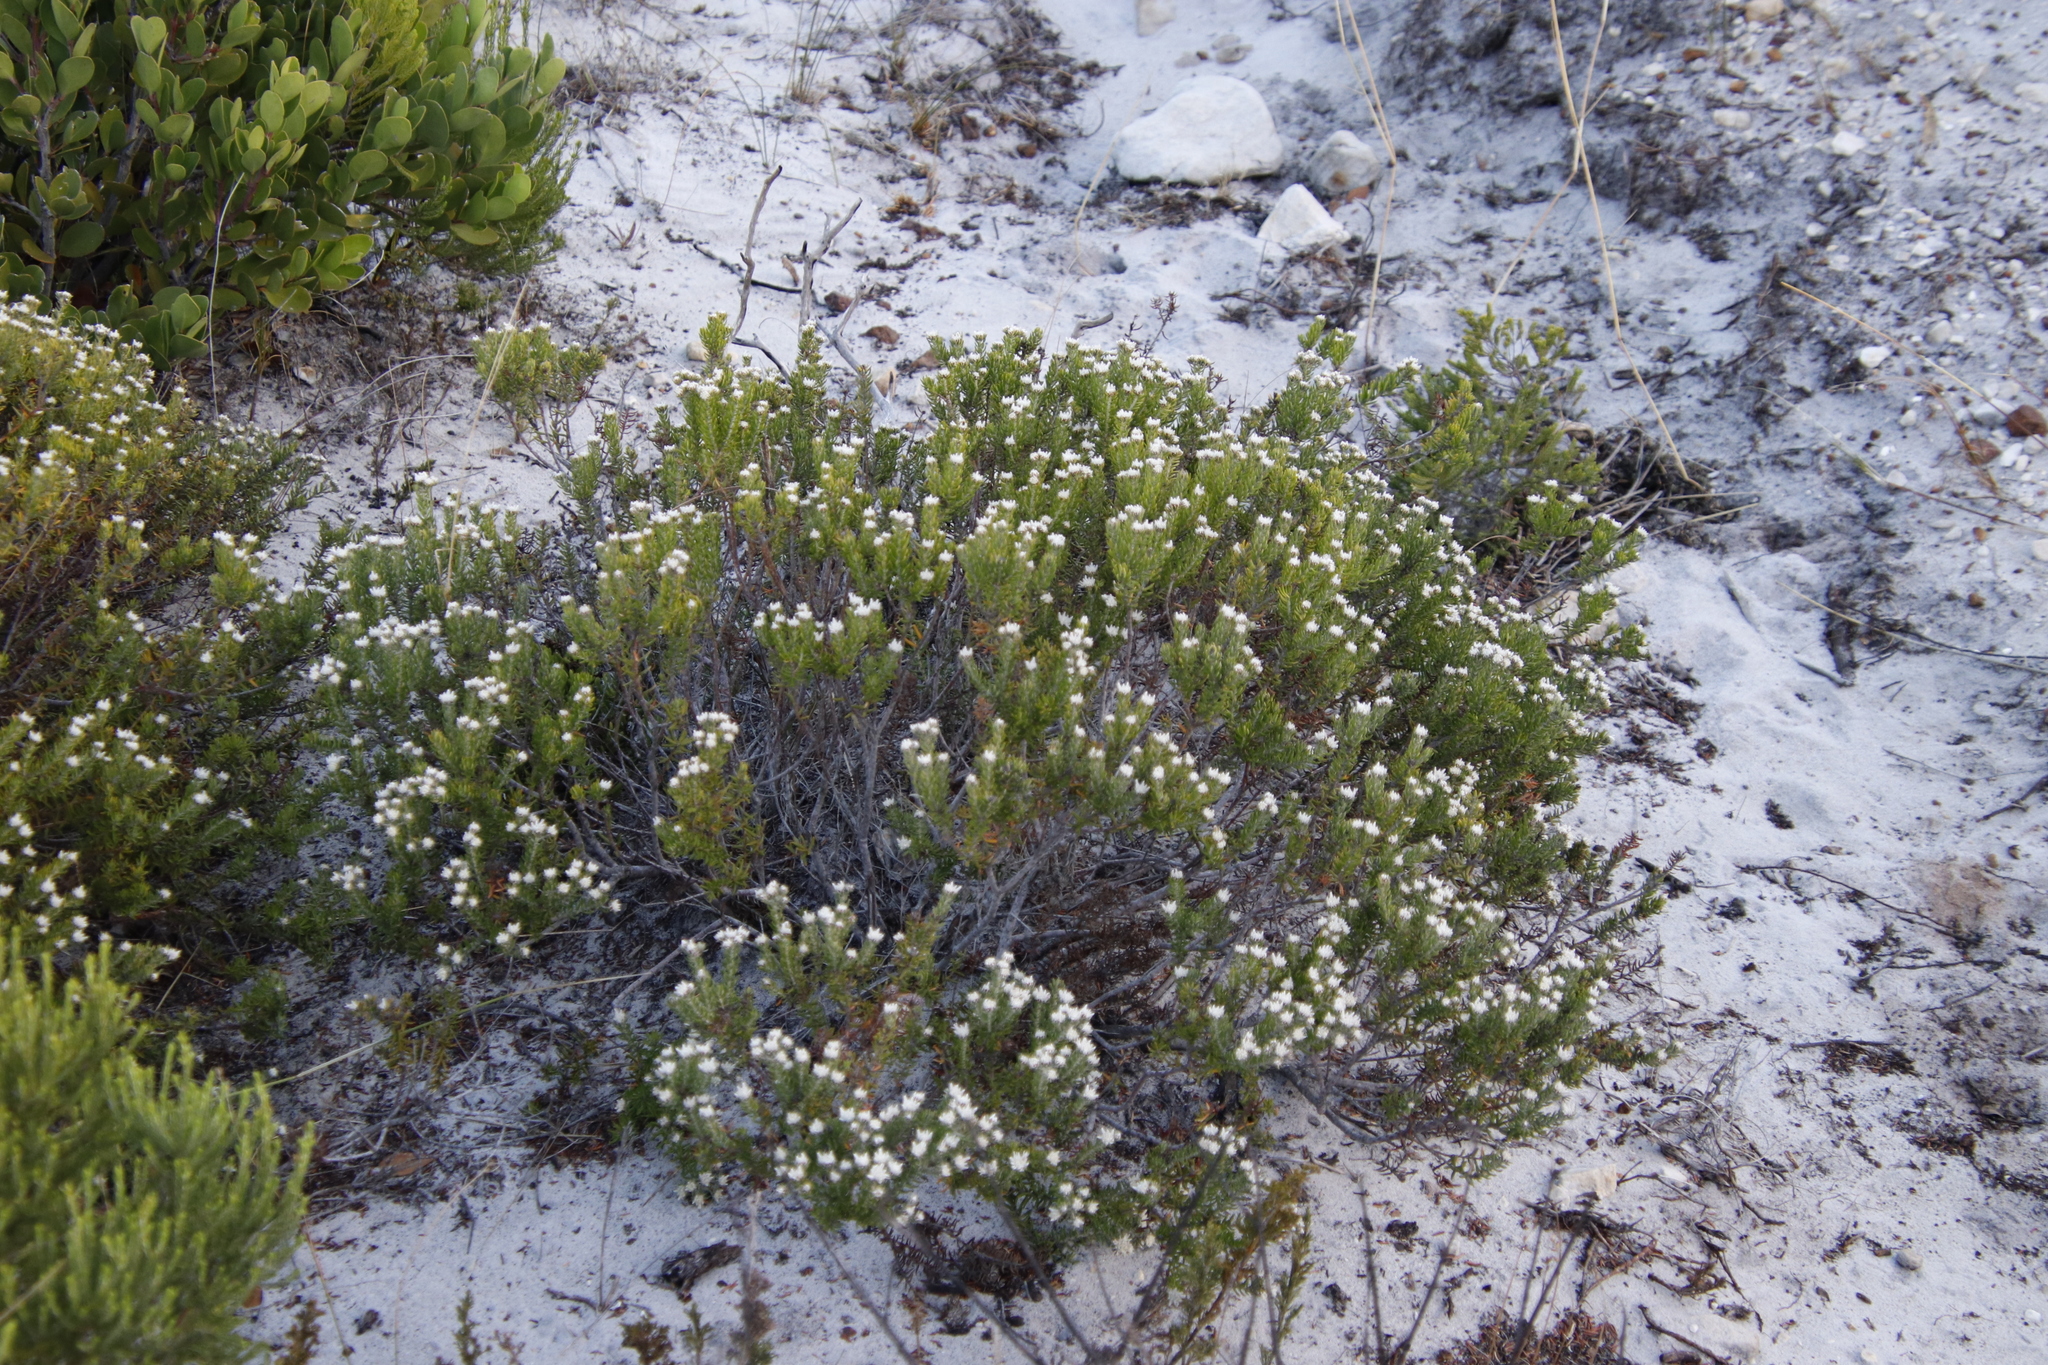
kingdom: Plantae
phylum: Tracheophyta
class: Magnoliopsida
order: Rosales
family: Rhamnaceae
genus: Trichocephalus
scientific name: Trichocephalus stipularis
